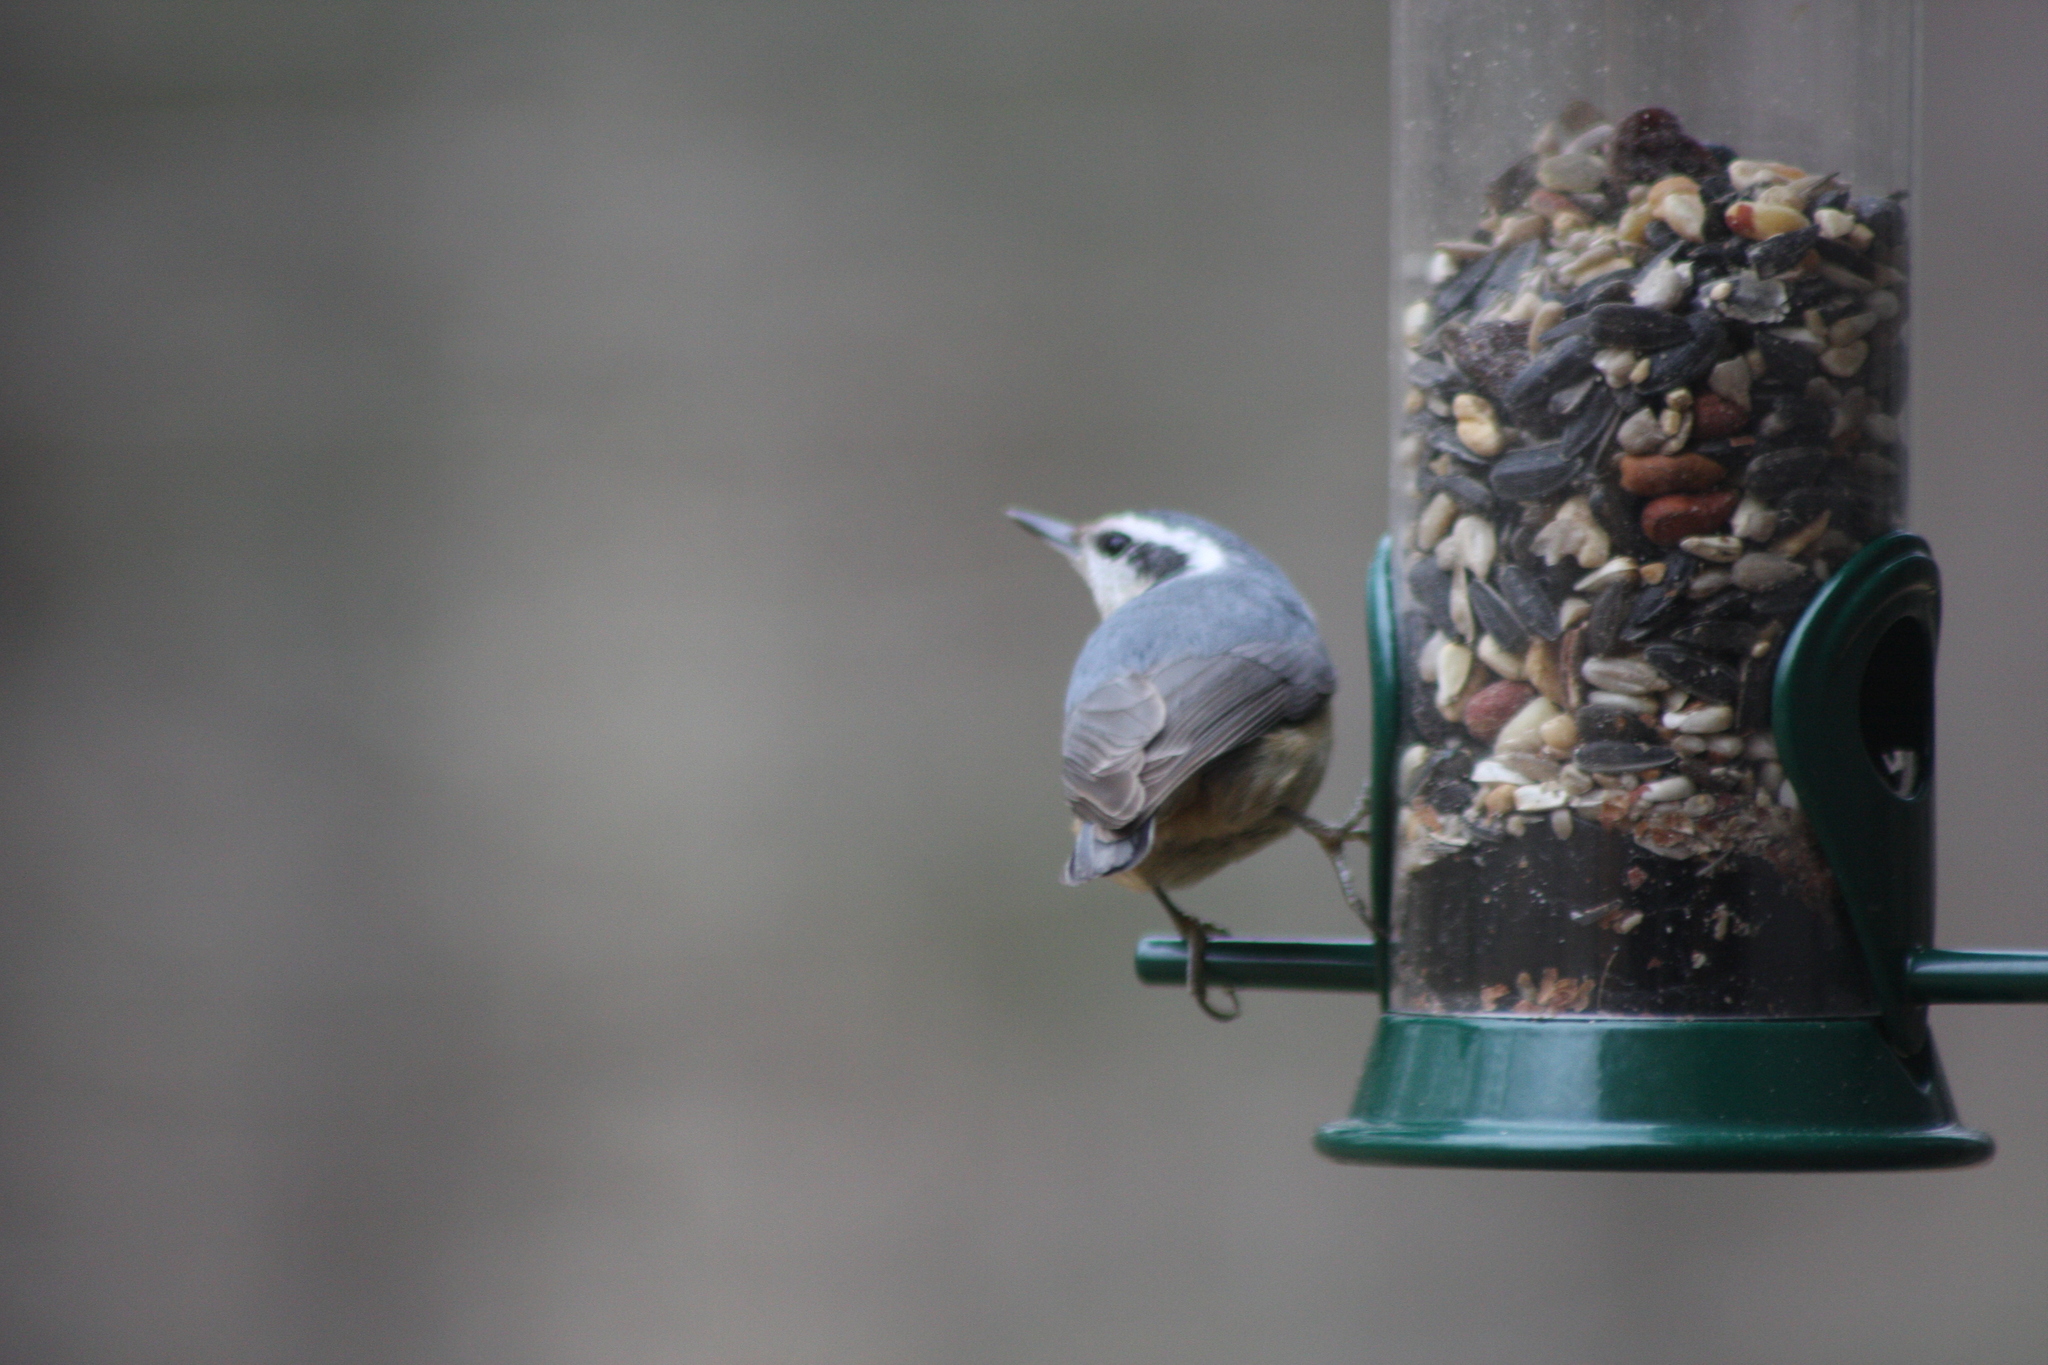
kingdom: Animalia
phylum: Chordata
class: Aves
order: Passeriformes
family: Sittidae
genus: Sitta
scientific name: Sitta canadensis
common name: Red-breasted nuthatch
